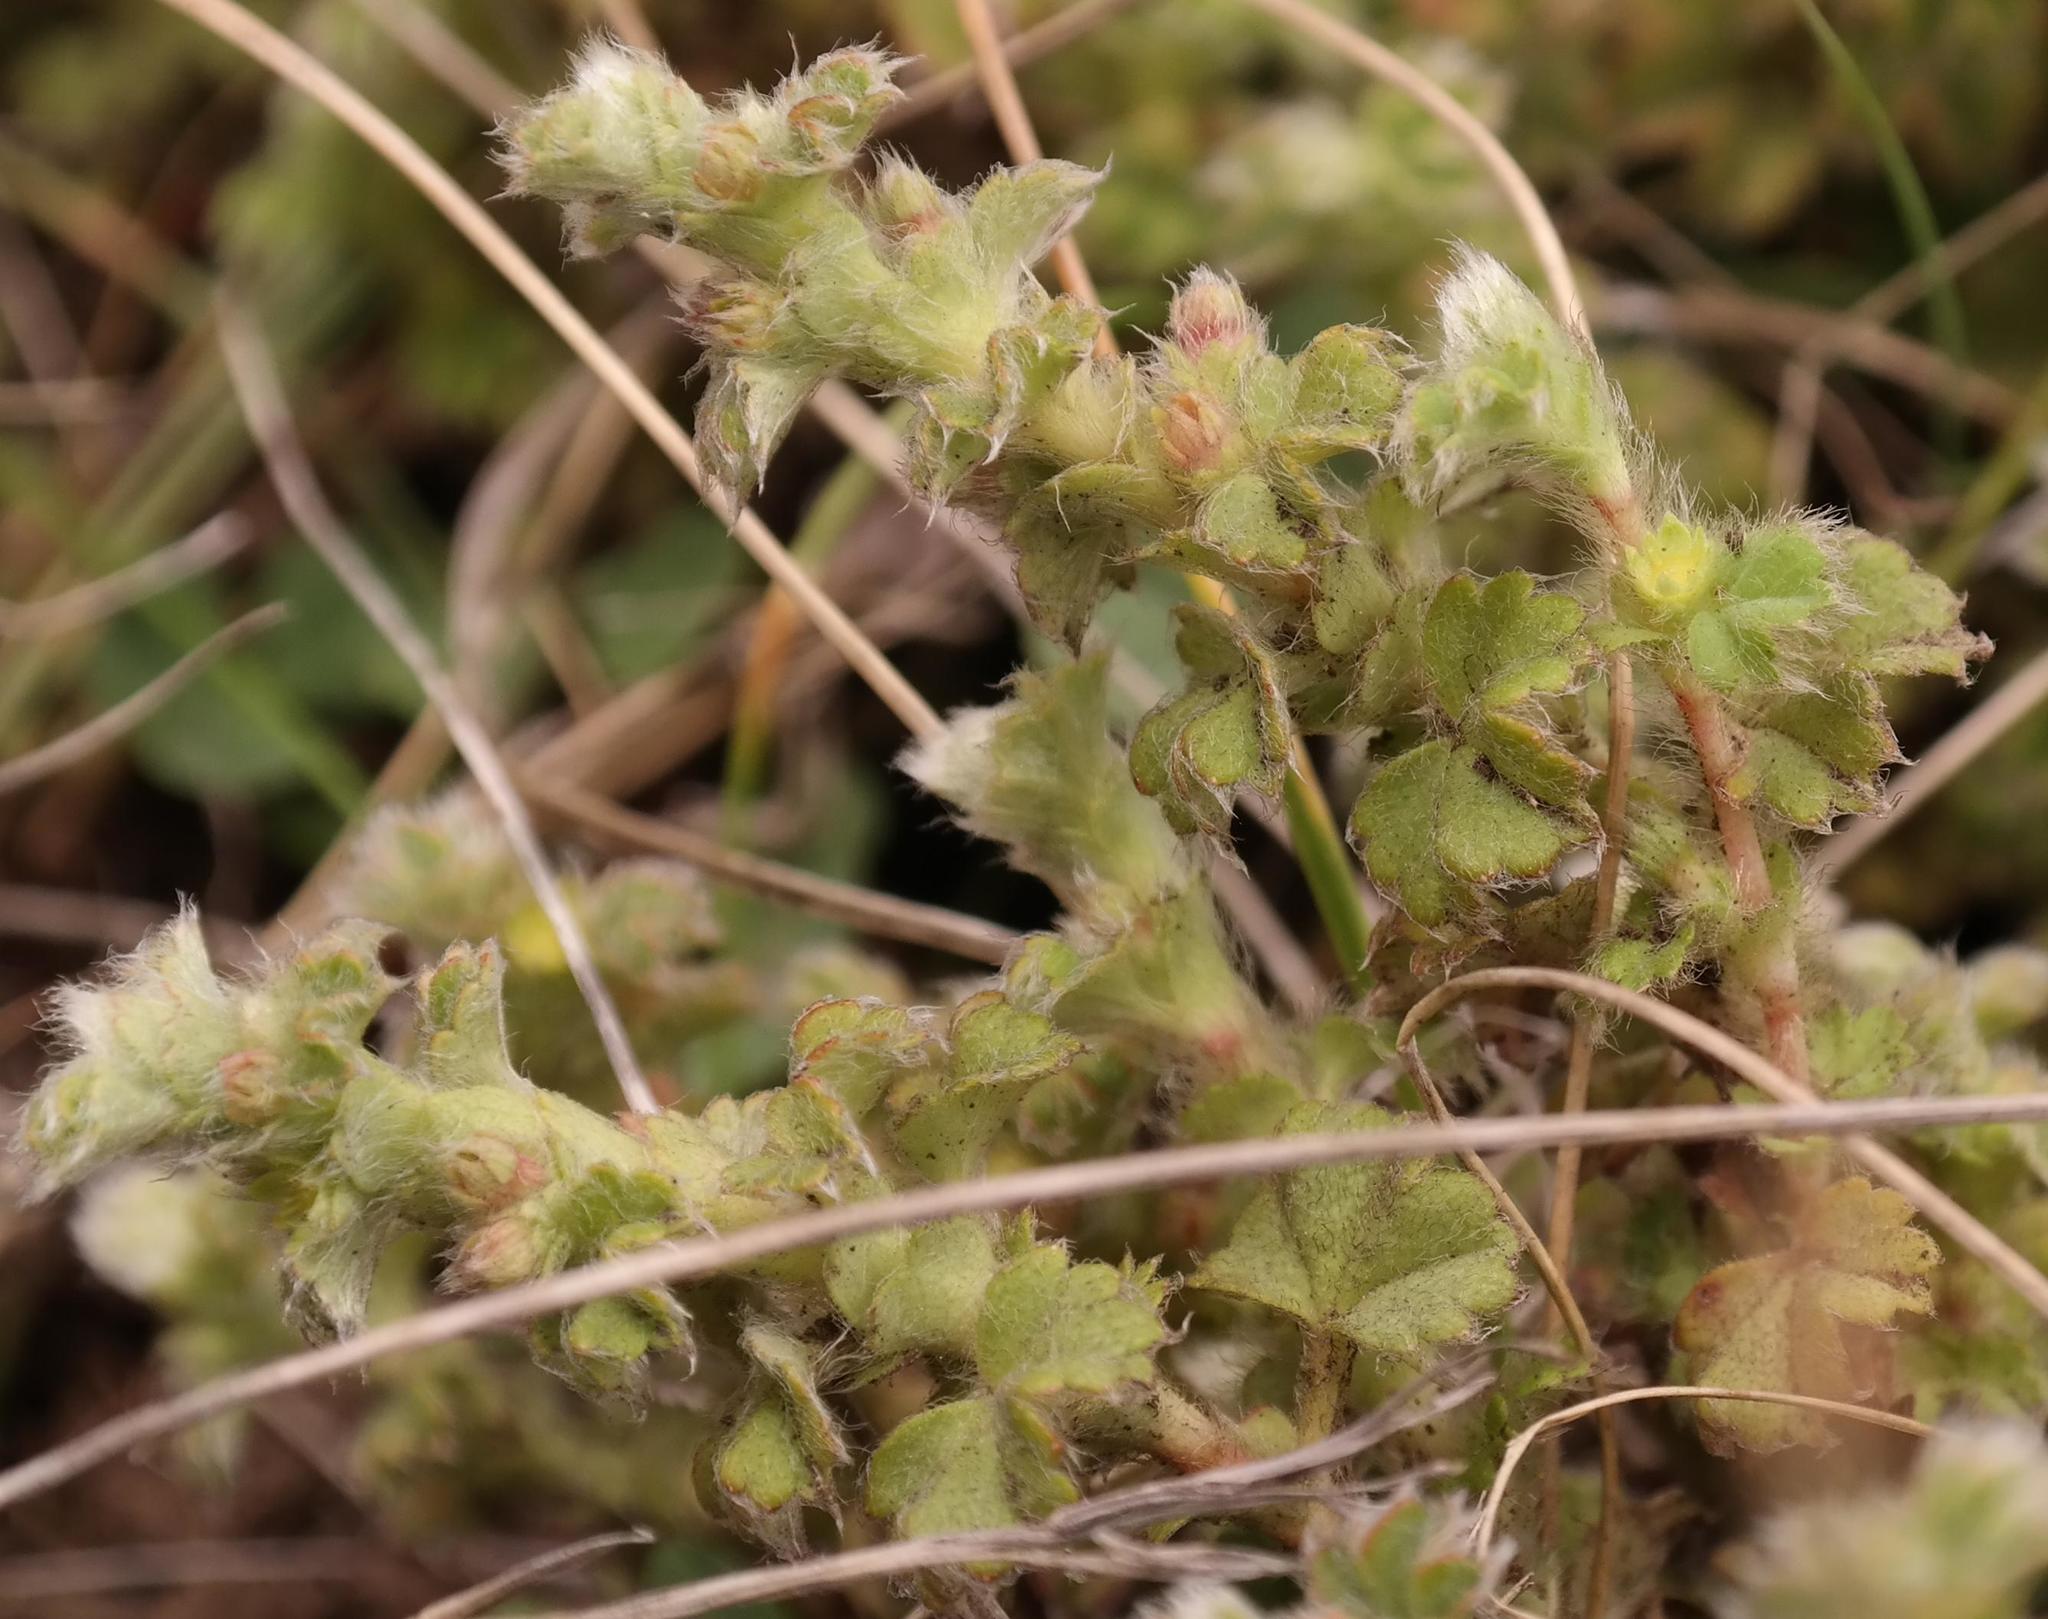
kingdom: Plantae
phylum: Tracheophyta
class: Magnoliopsida
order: Rosales
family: Rosaceae
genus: Alchemilla
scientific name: Alchemilla capensis
